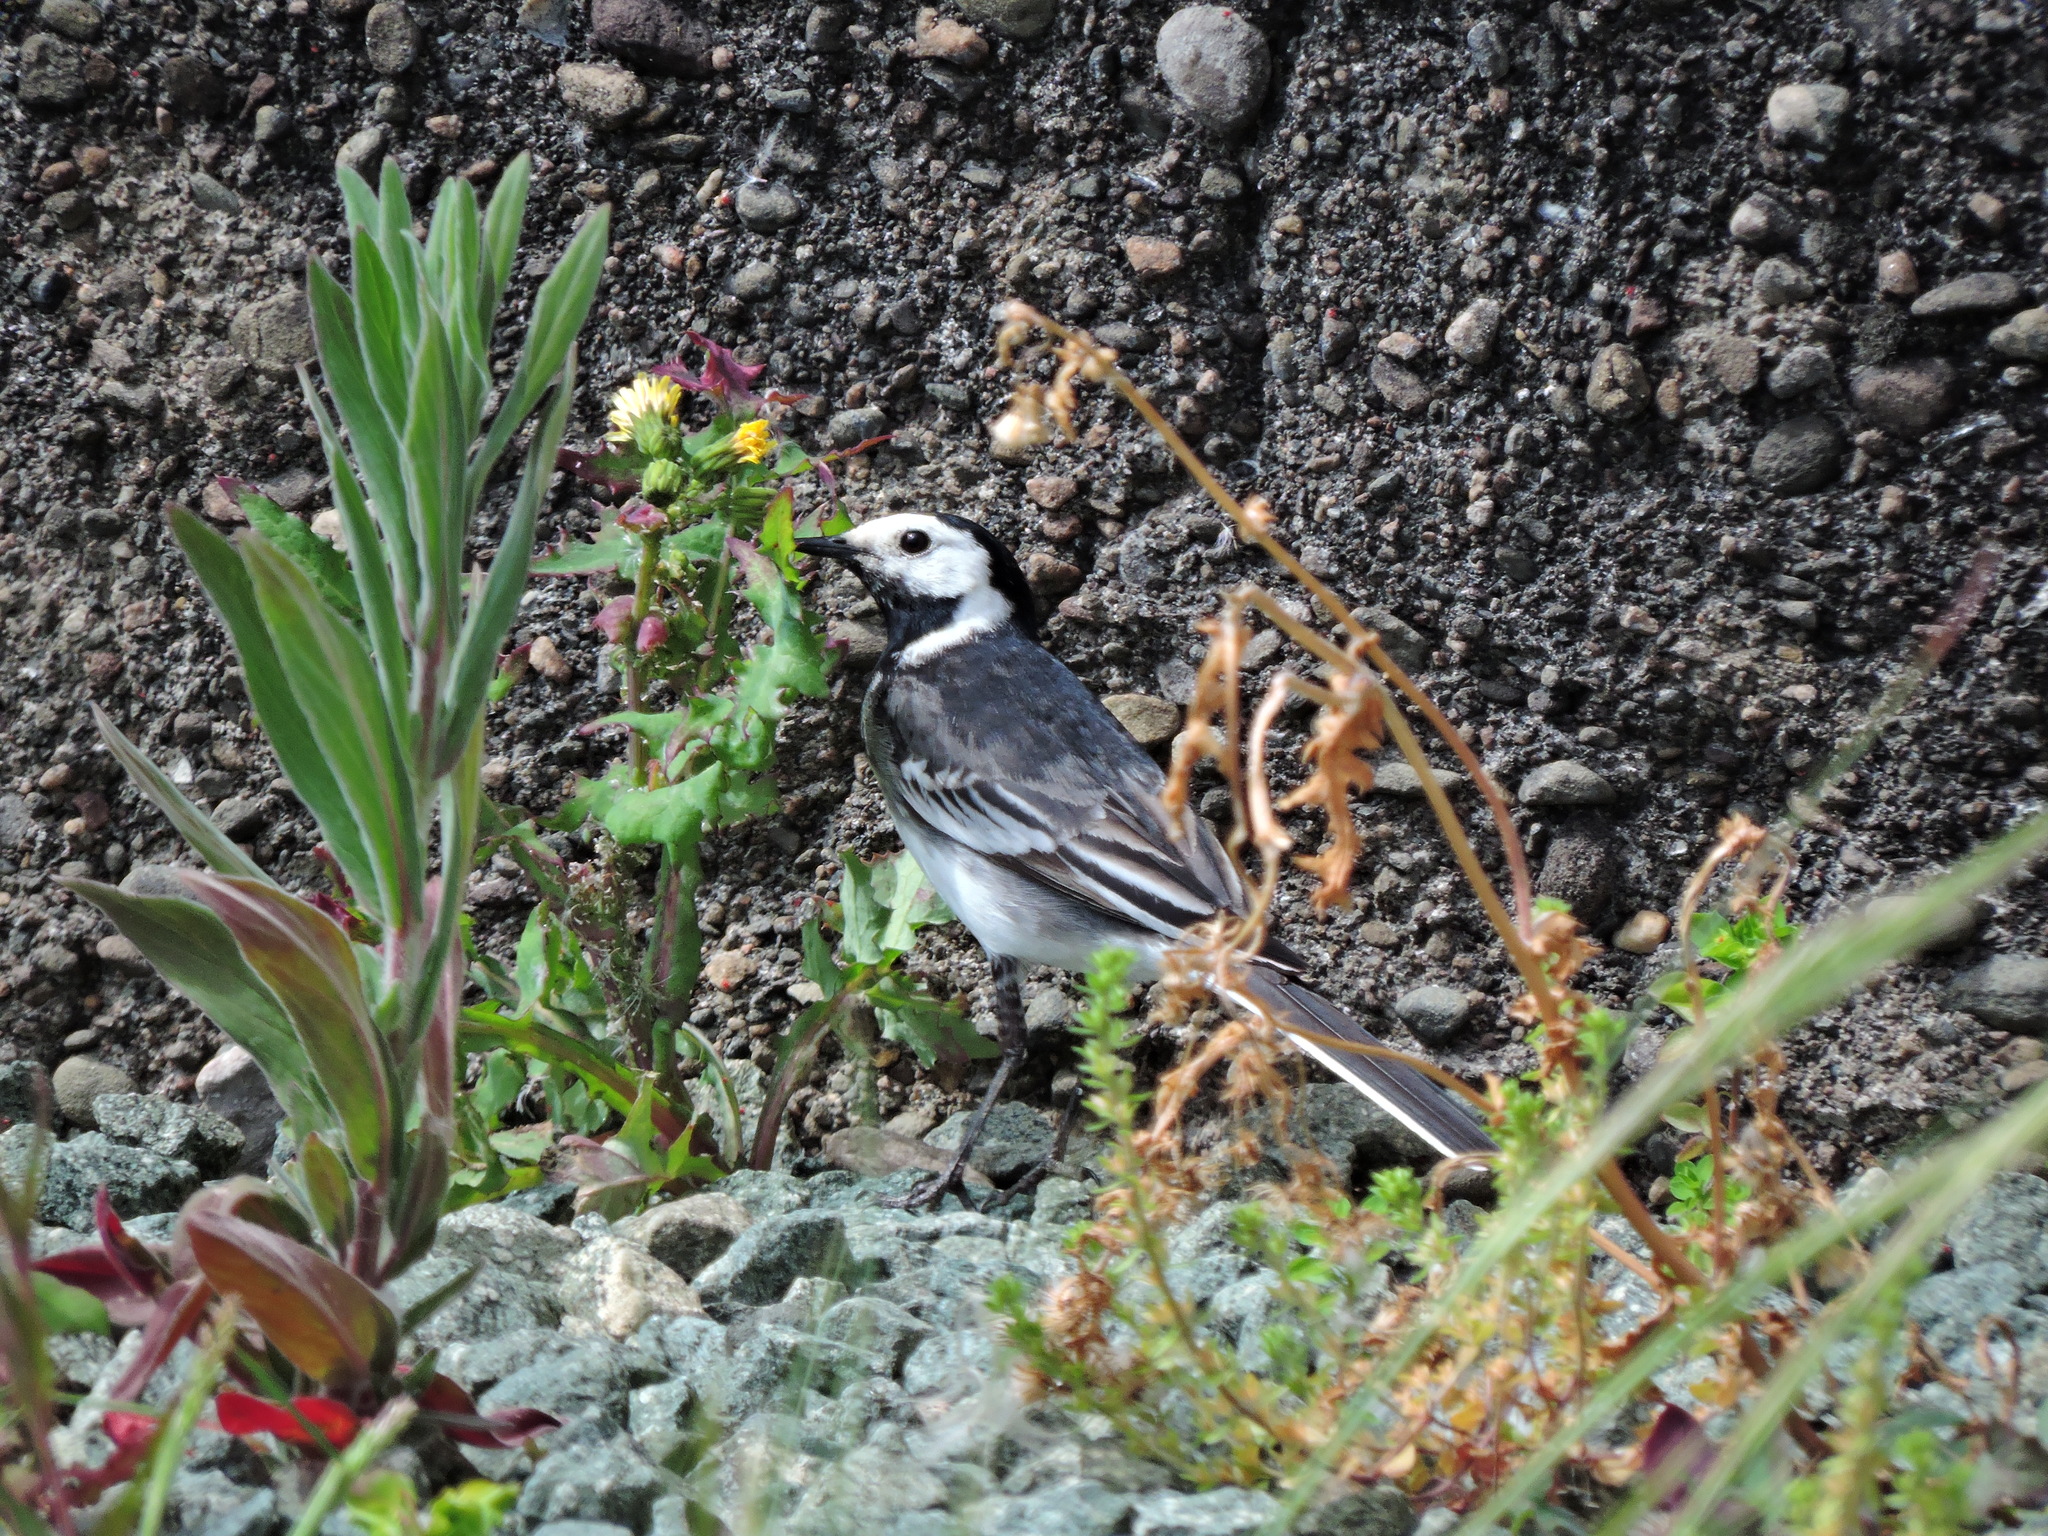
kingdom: Animalia
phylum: Chordata
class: Aves
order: Passeriformes
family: Motacillidae
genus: Motacilla
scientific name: Motacilla alba
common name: White wagtail
